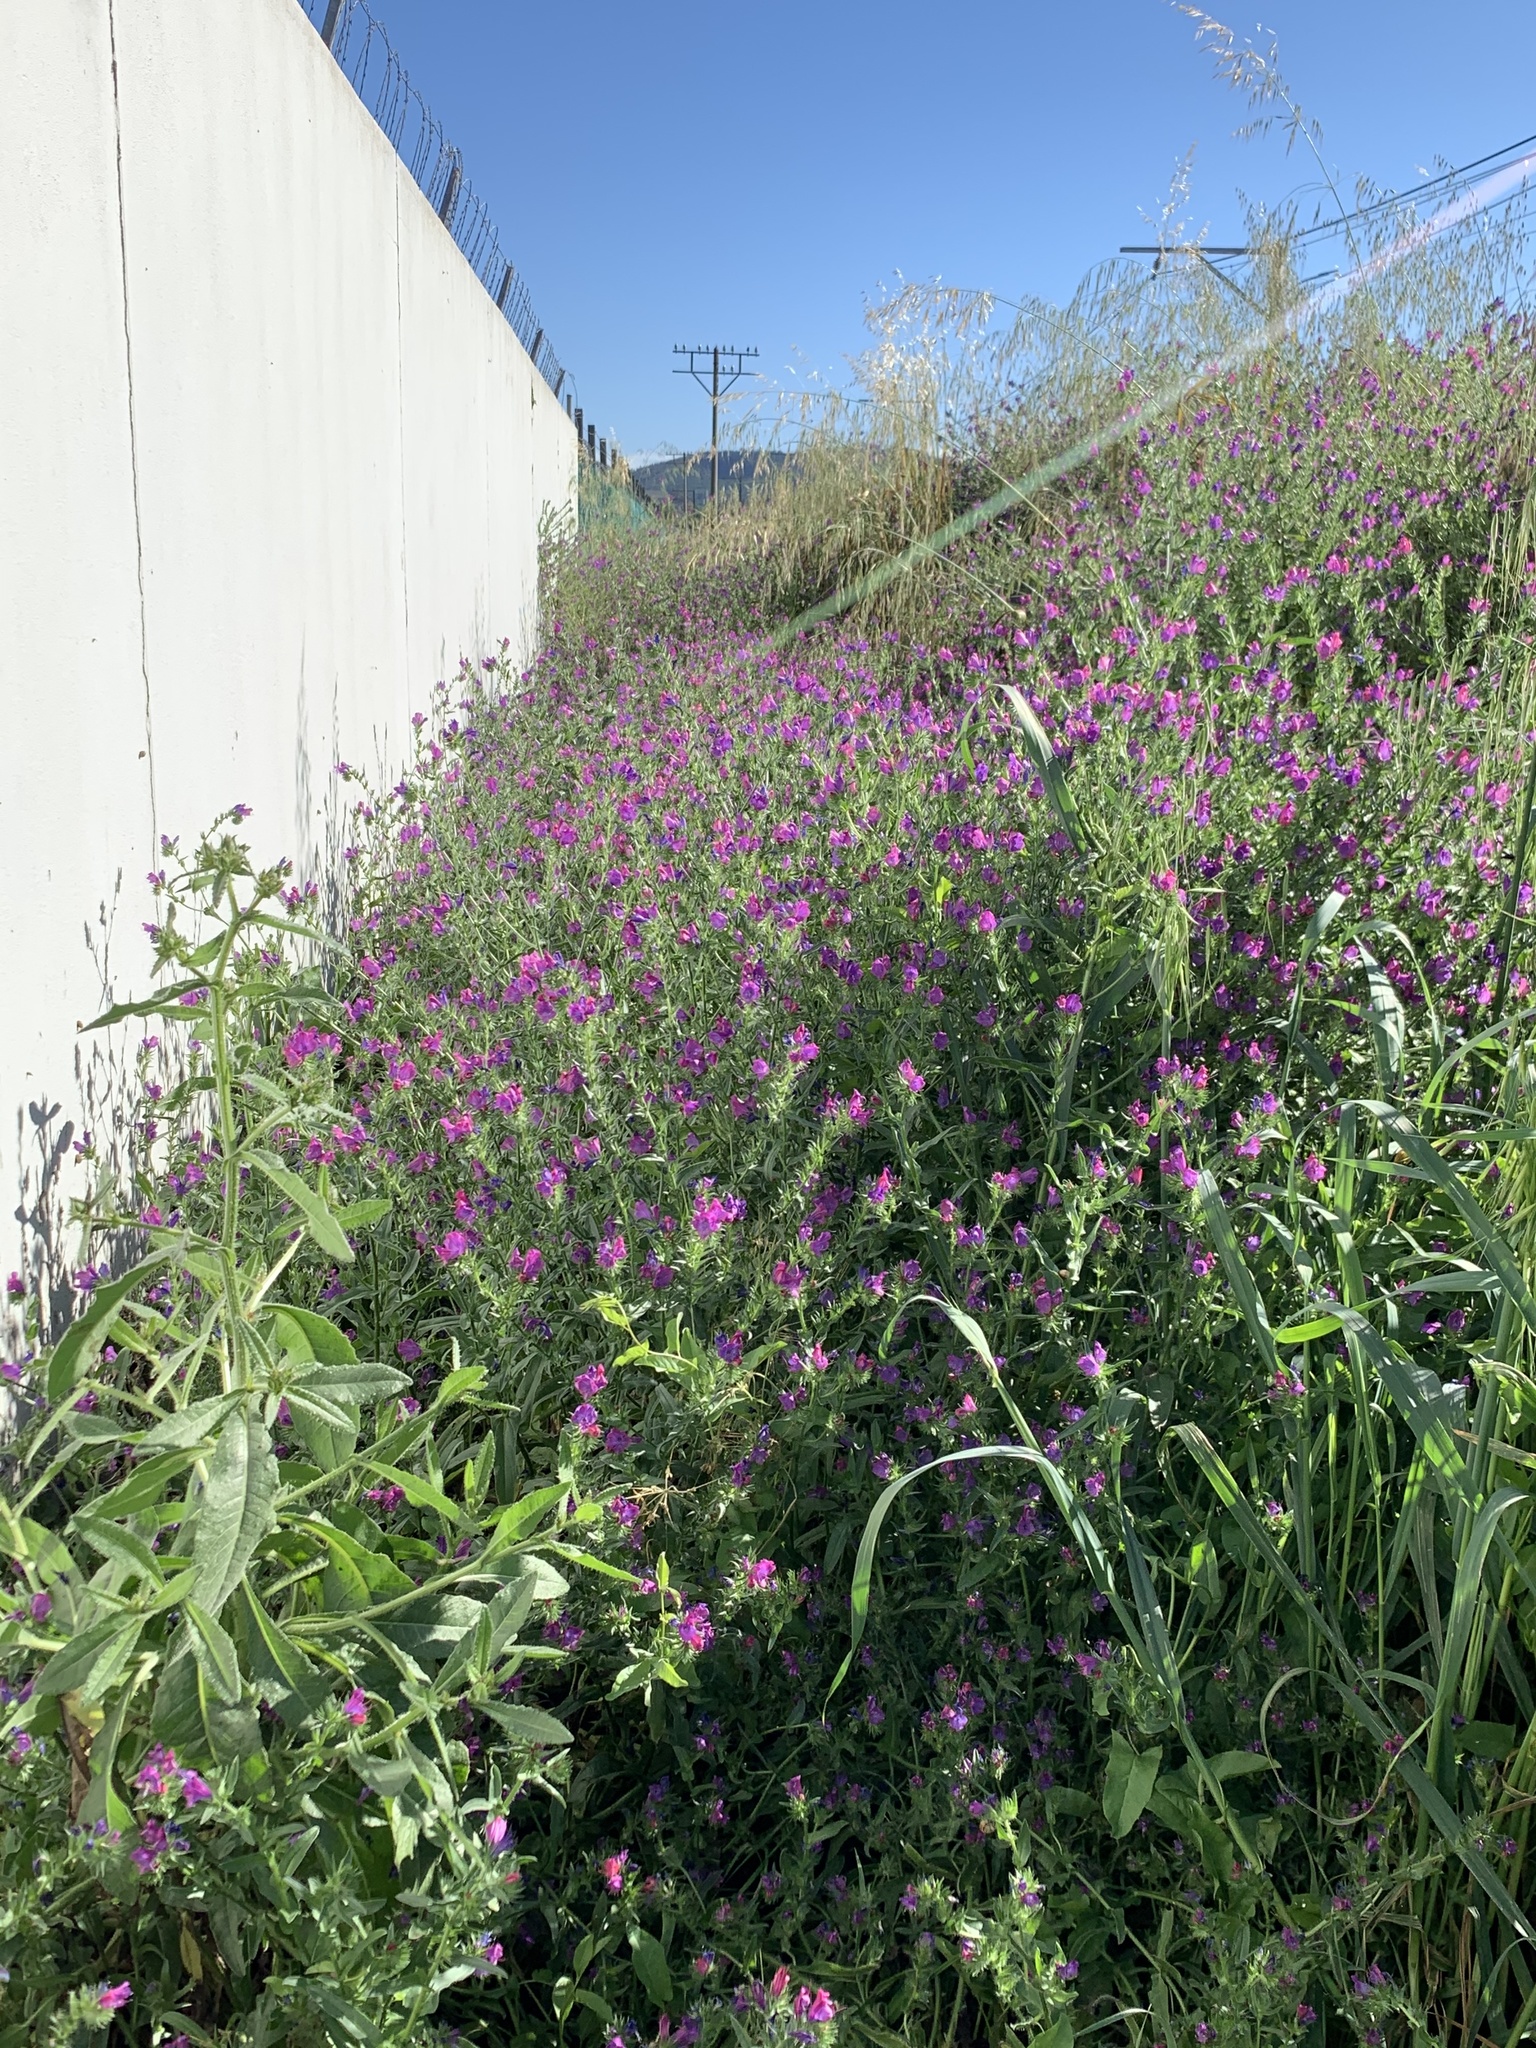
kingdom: Plantae
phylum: Tracheophyta
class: Magnoliopsida
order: Boraginales
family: Boraginaceae
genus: Echium
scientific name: Echium plantagineum
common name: Purple viper's-bugloss
